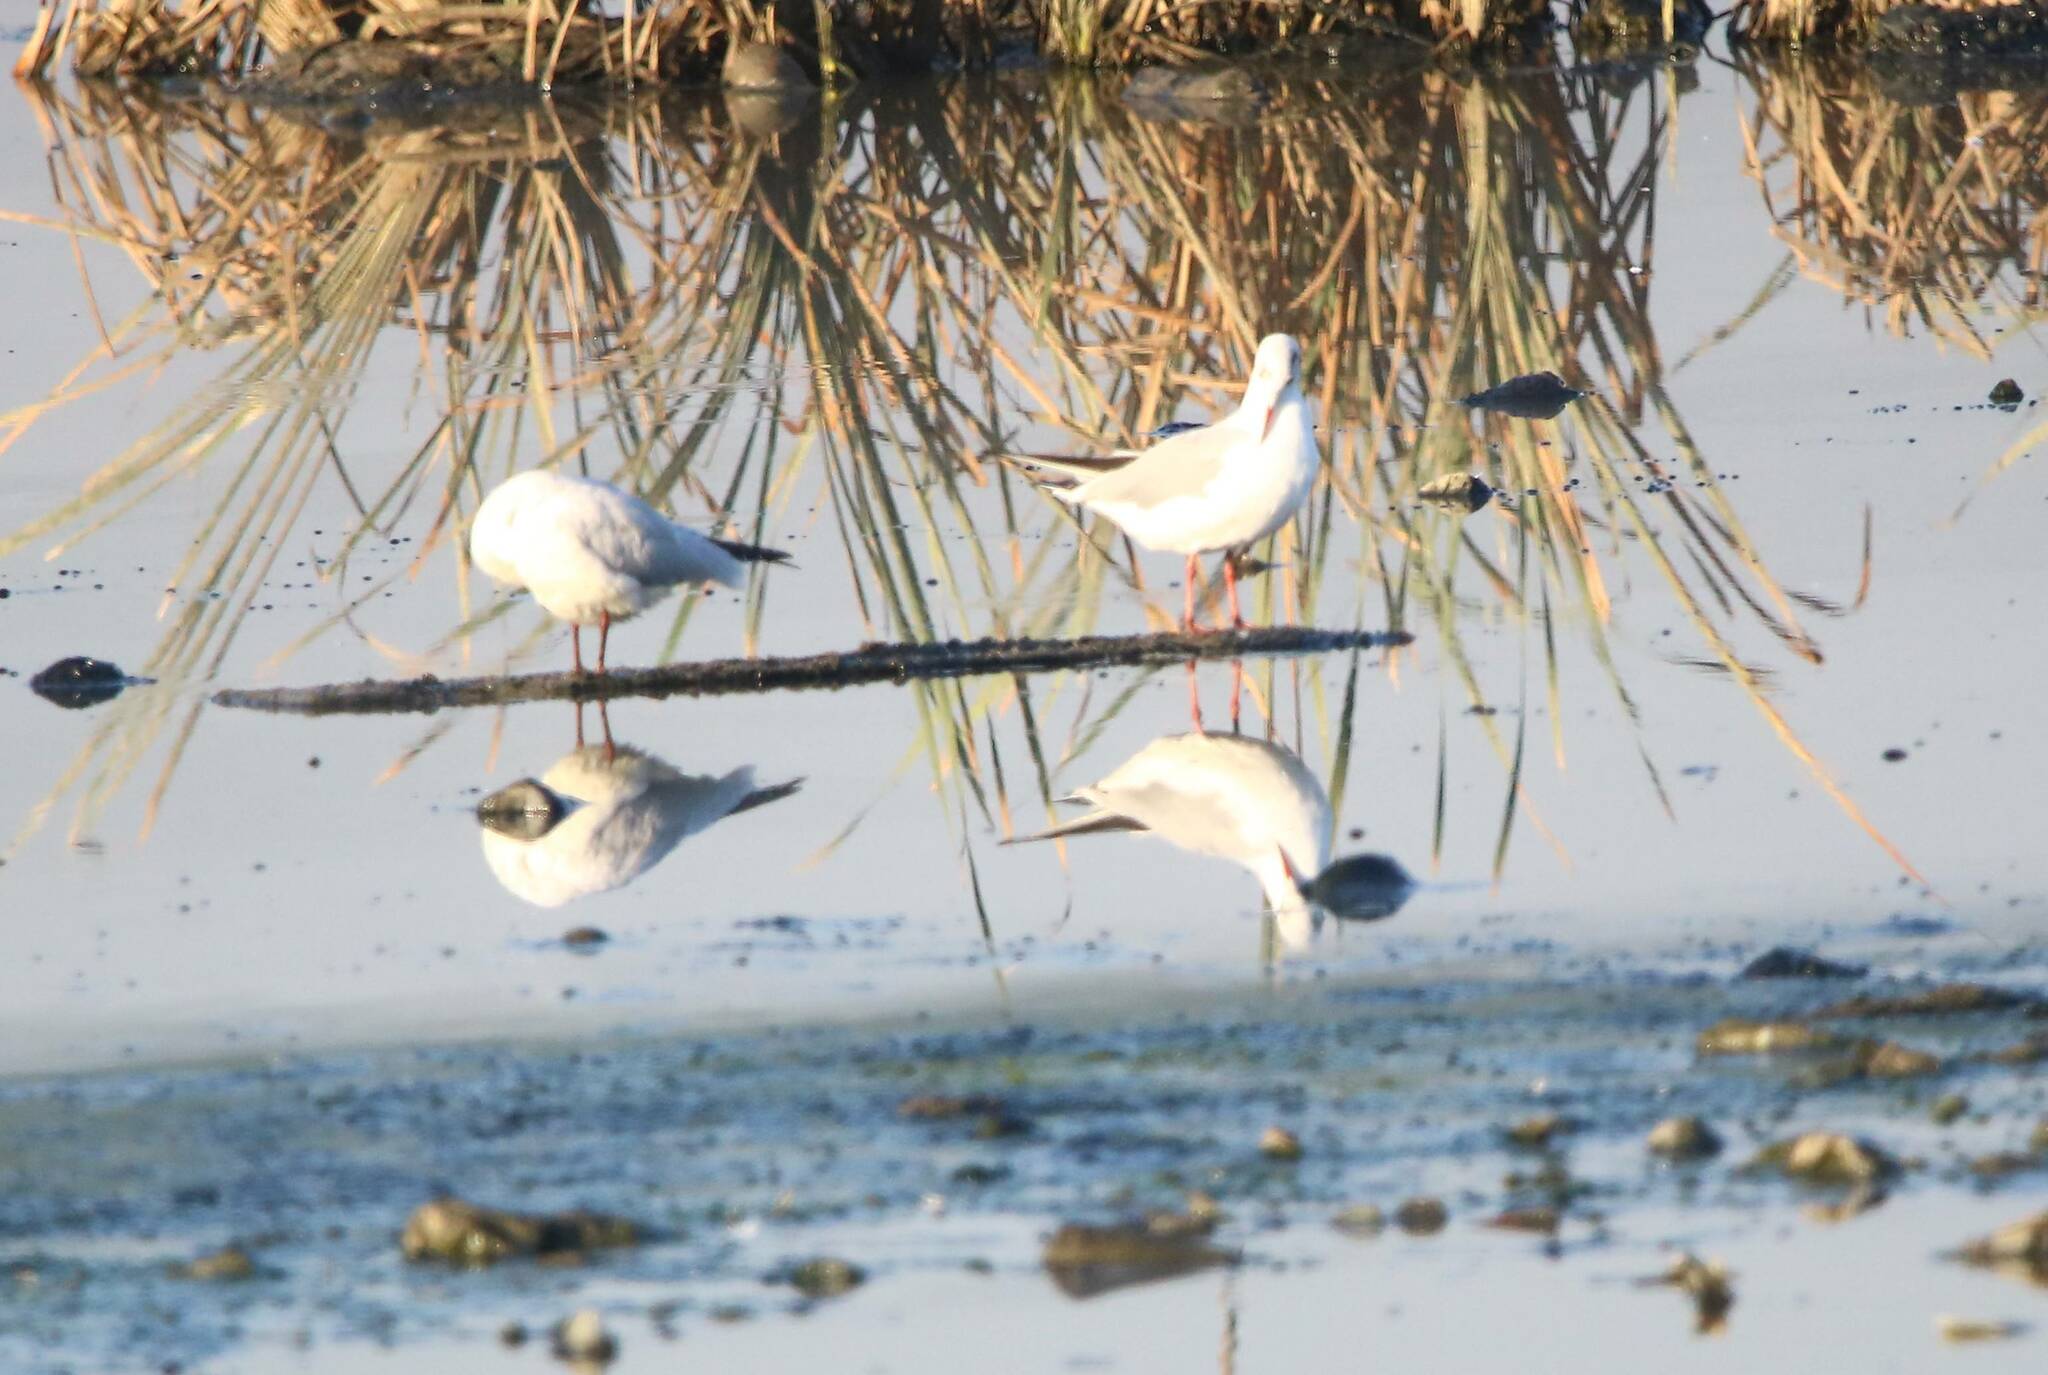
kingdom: Animalia
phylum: Chordata
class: Aves
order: Charadriiformes
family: Laridae
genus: Chroicocephalus
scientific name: Chroicocephalus ridibundus
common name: Black-headed gull
